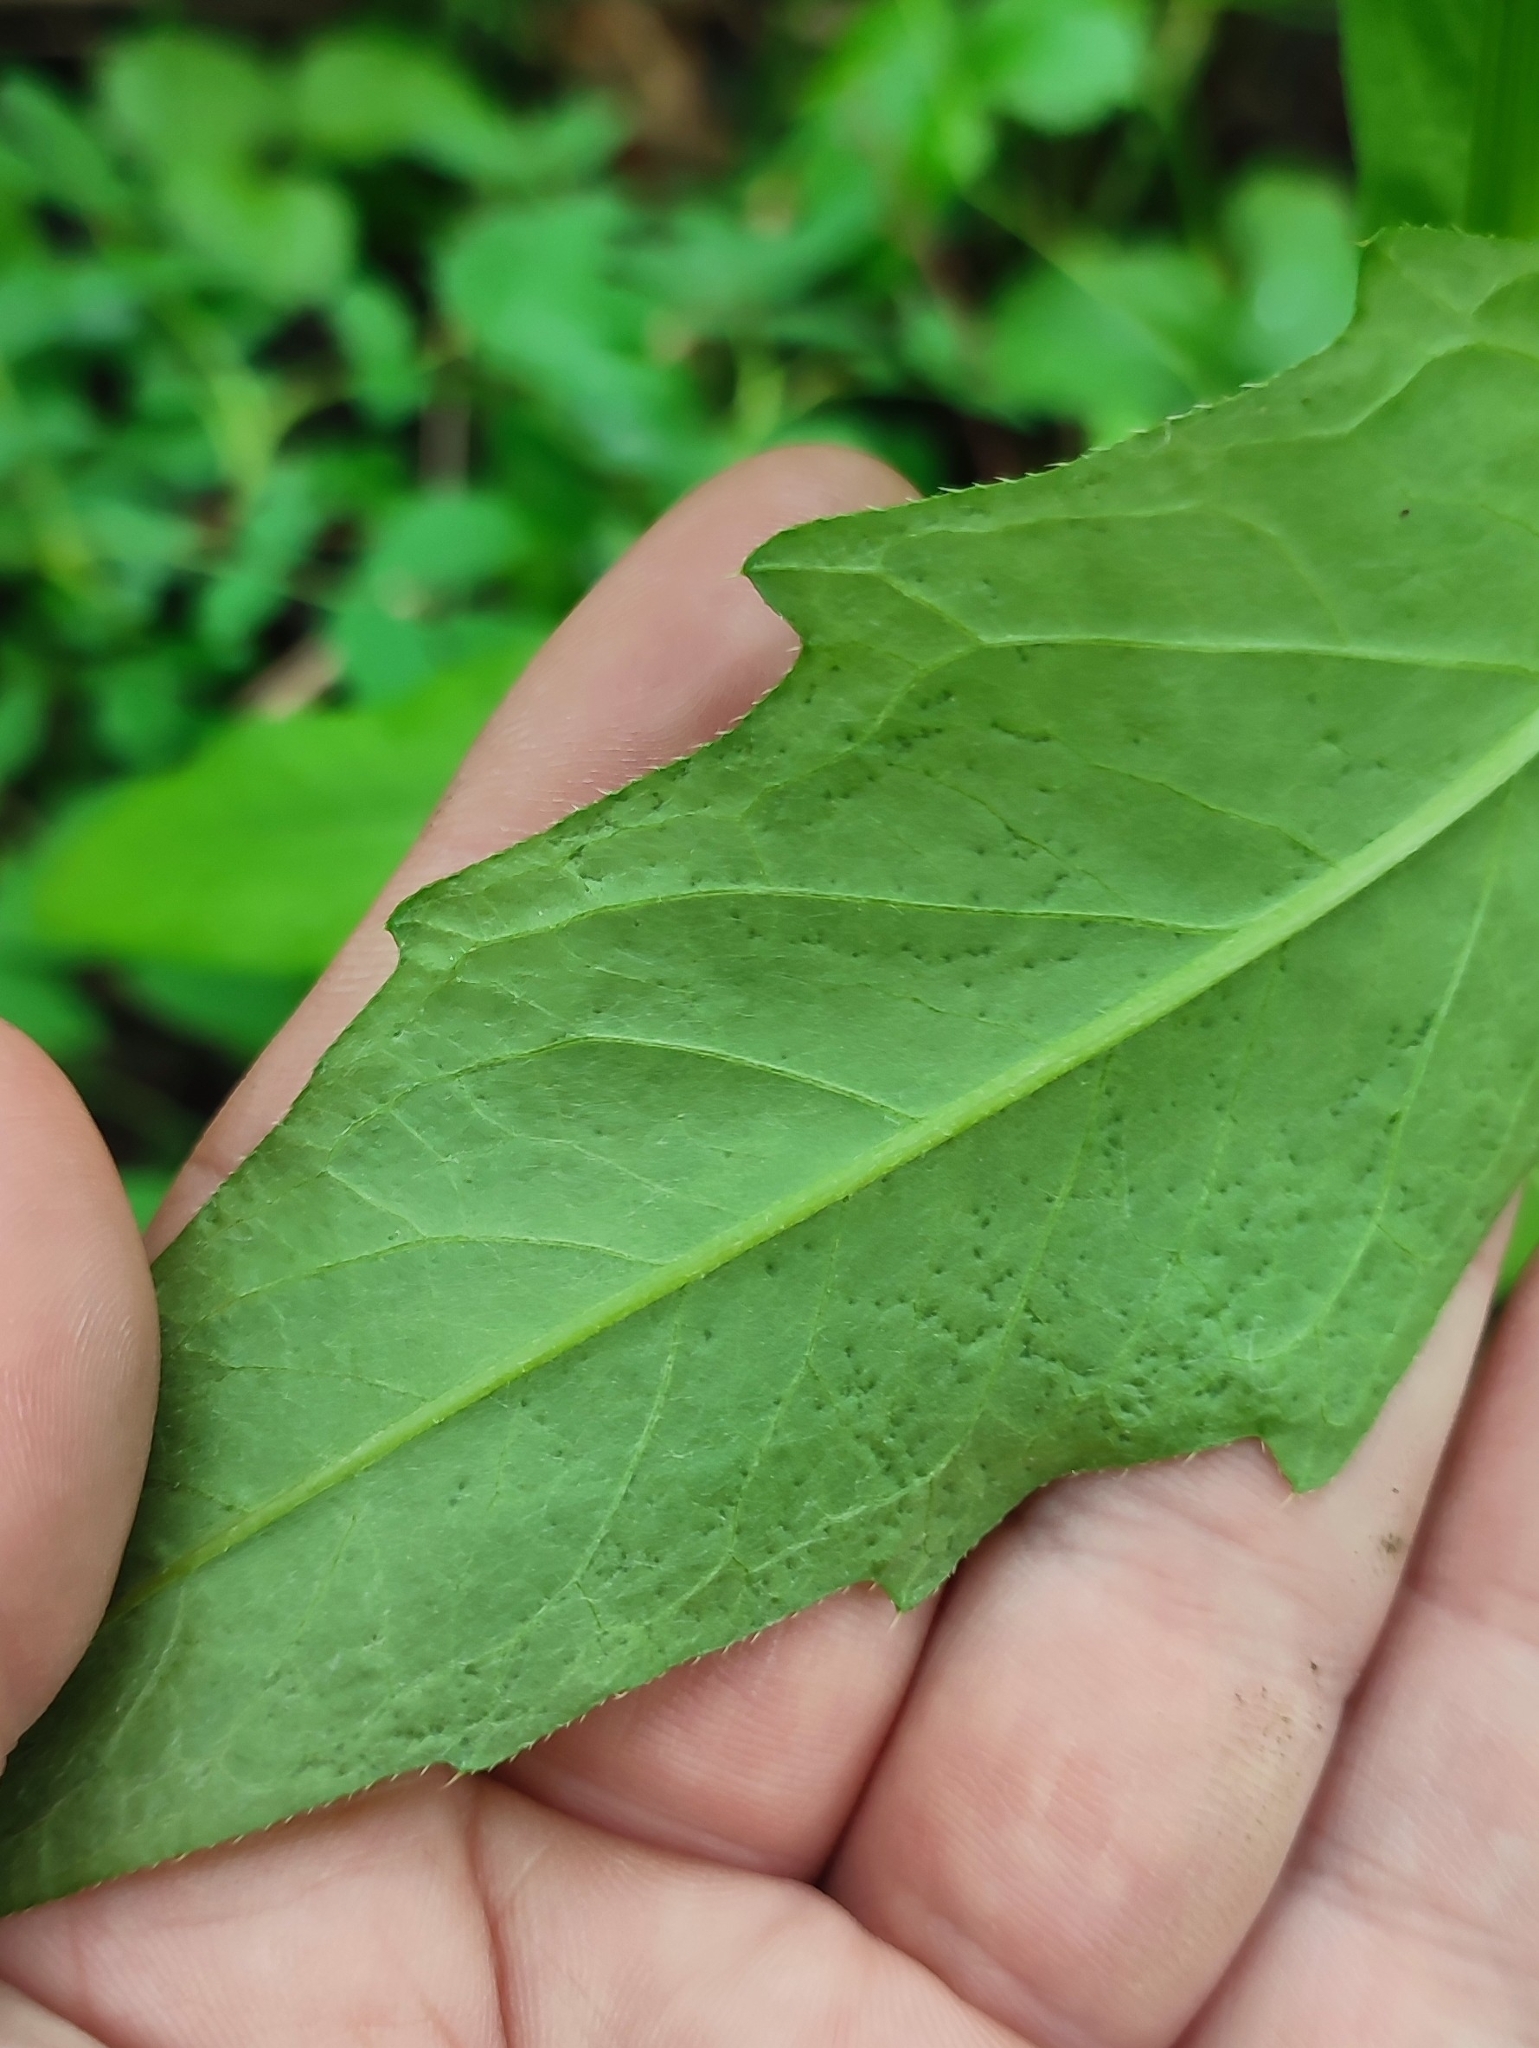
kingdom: Plantae
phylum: Tracheophyta
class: Magnoliopsida
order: Asterales
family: Asteraceae
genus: Cirsium
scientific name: Cirsium arvense
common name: Creeping thistle
